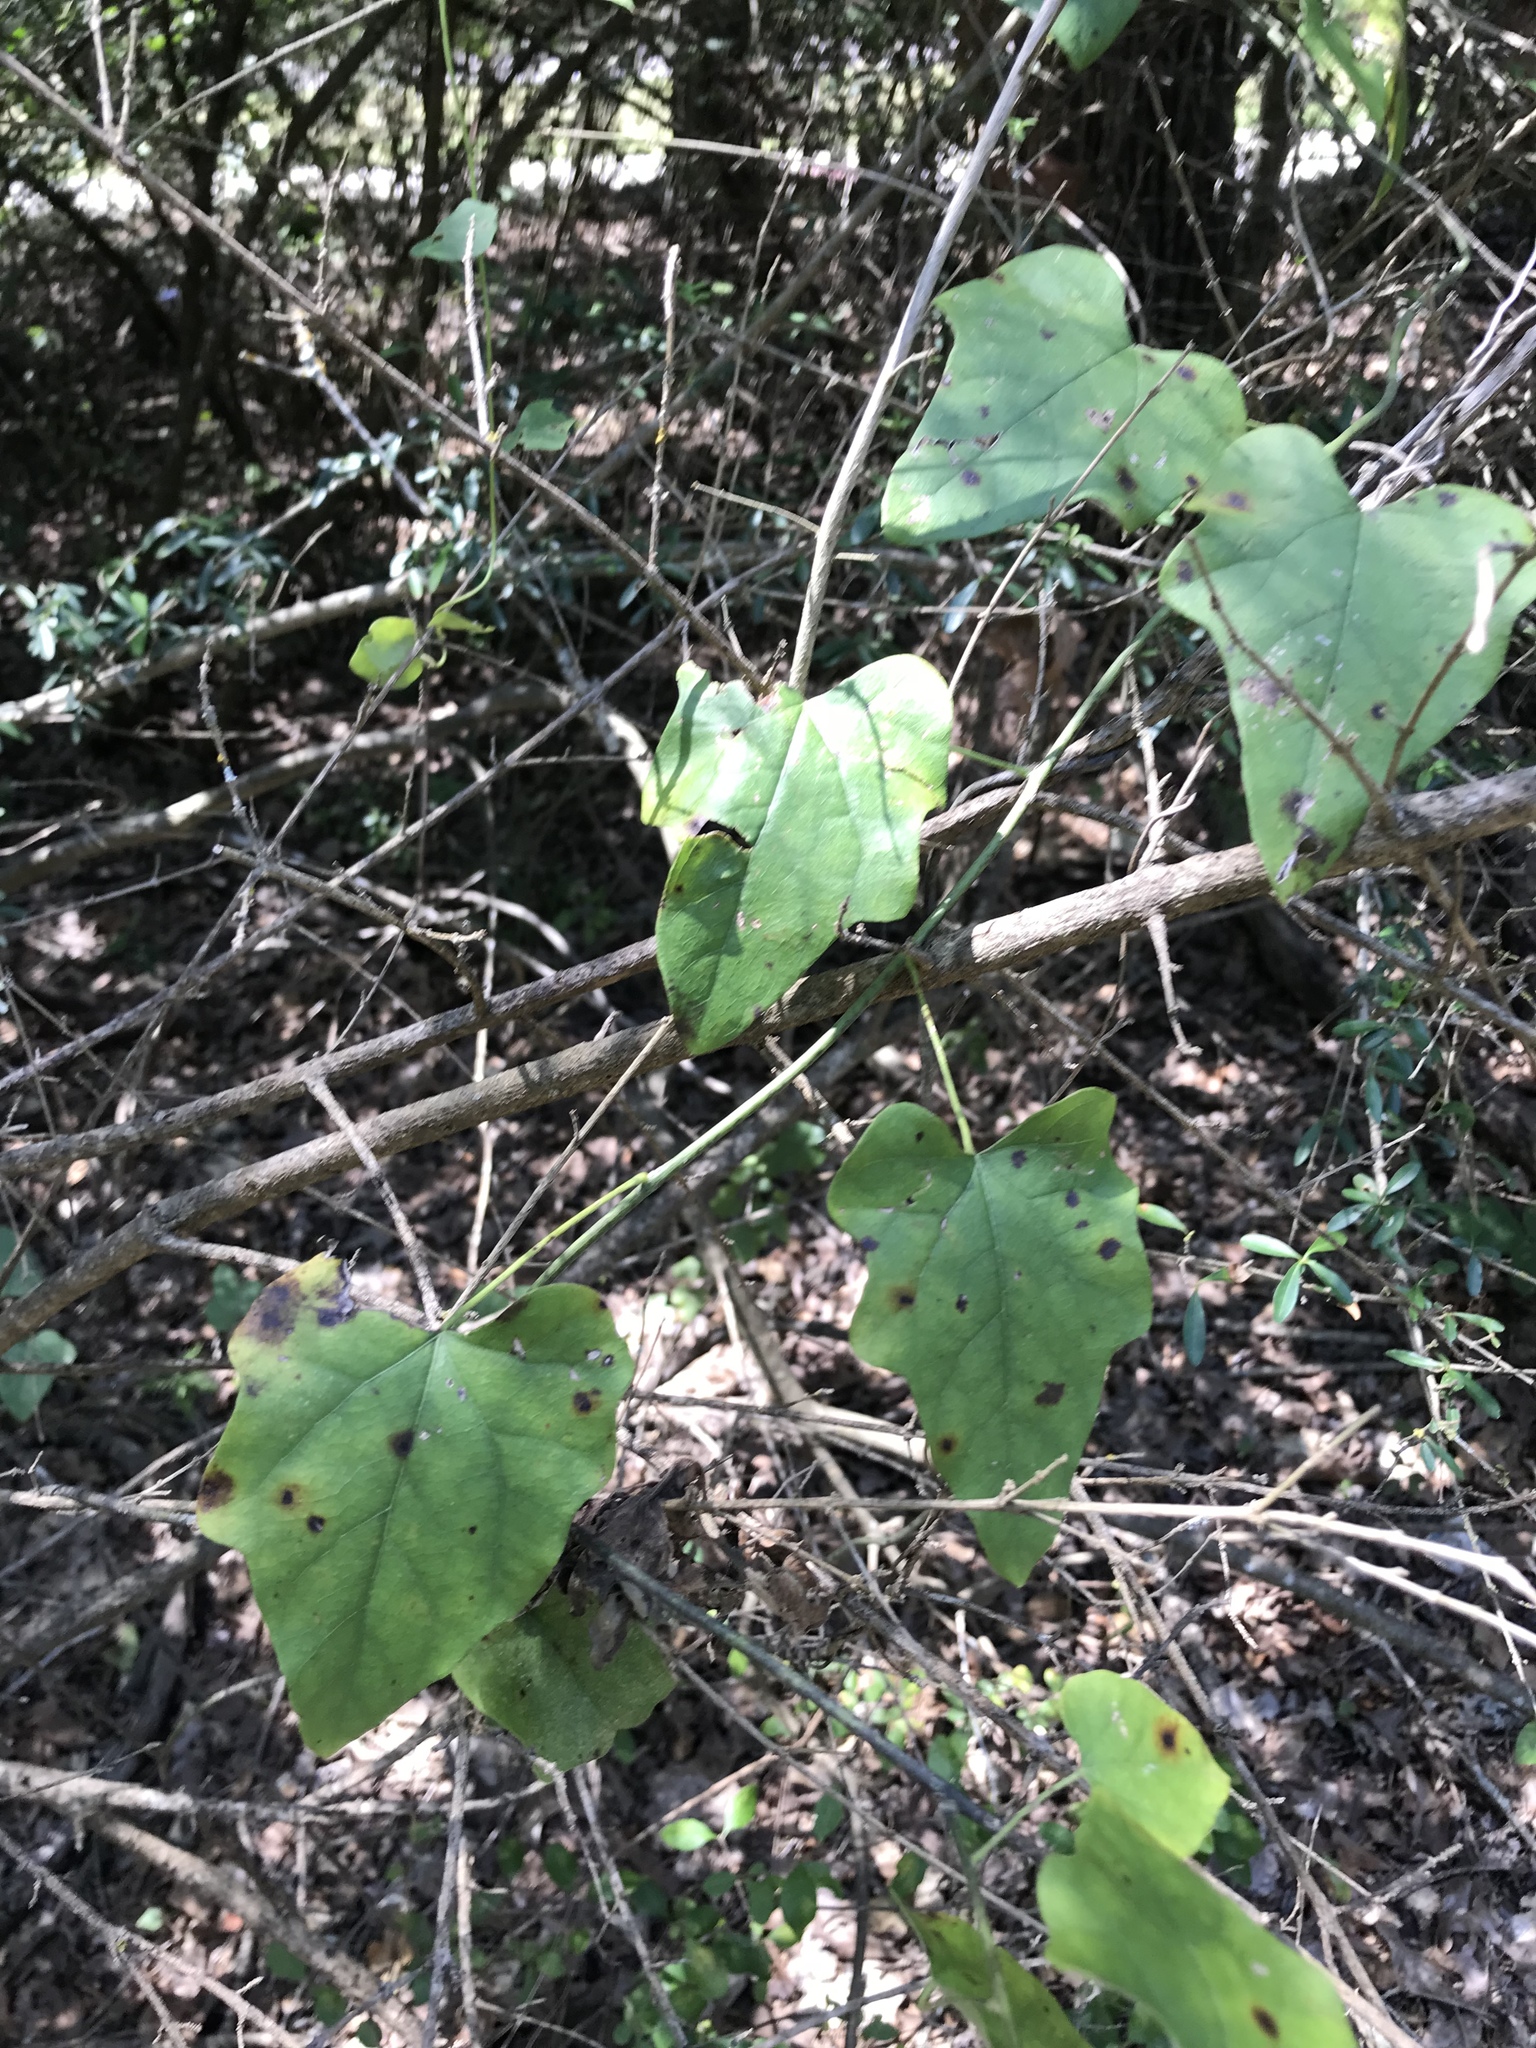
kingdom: Plantae
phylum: Tracheophyta
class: Magnoliopsida
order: Ranunculales
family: Menispermaceae
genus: Cocculus
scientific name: Cocculus carolinus
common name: Carolina moonseed
